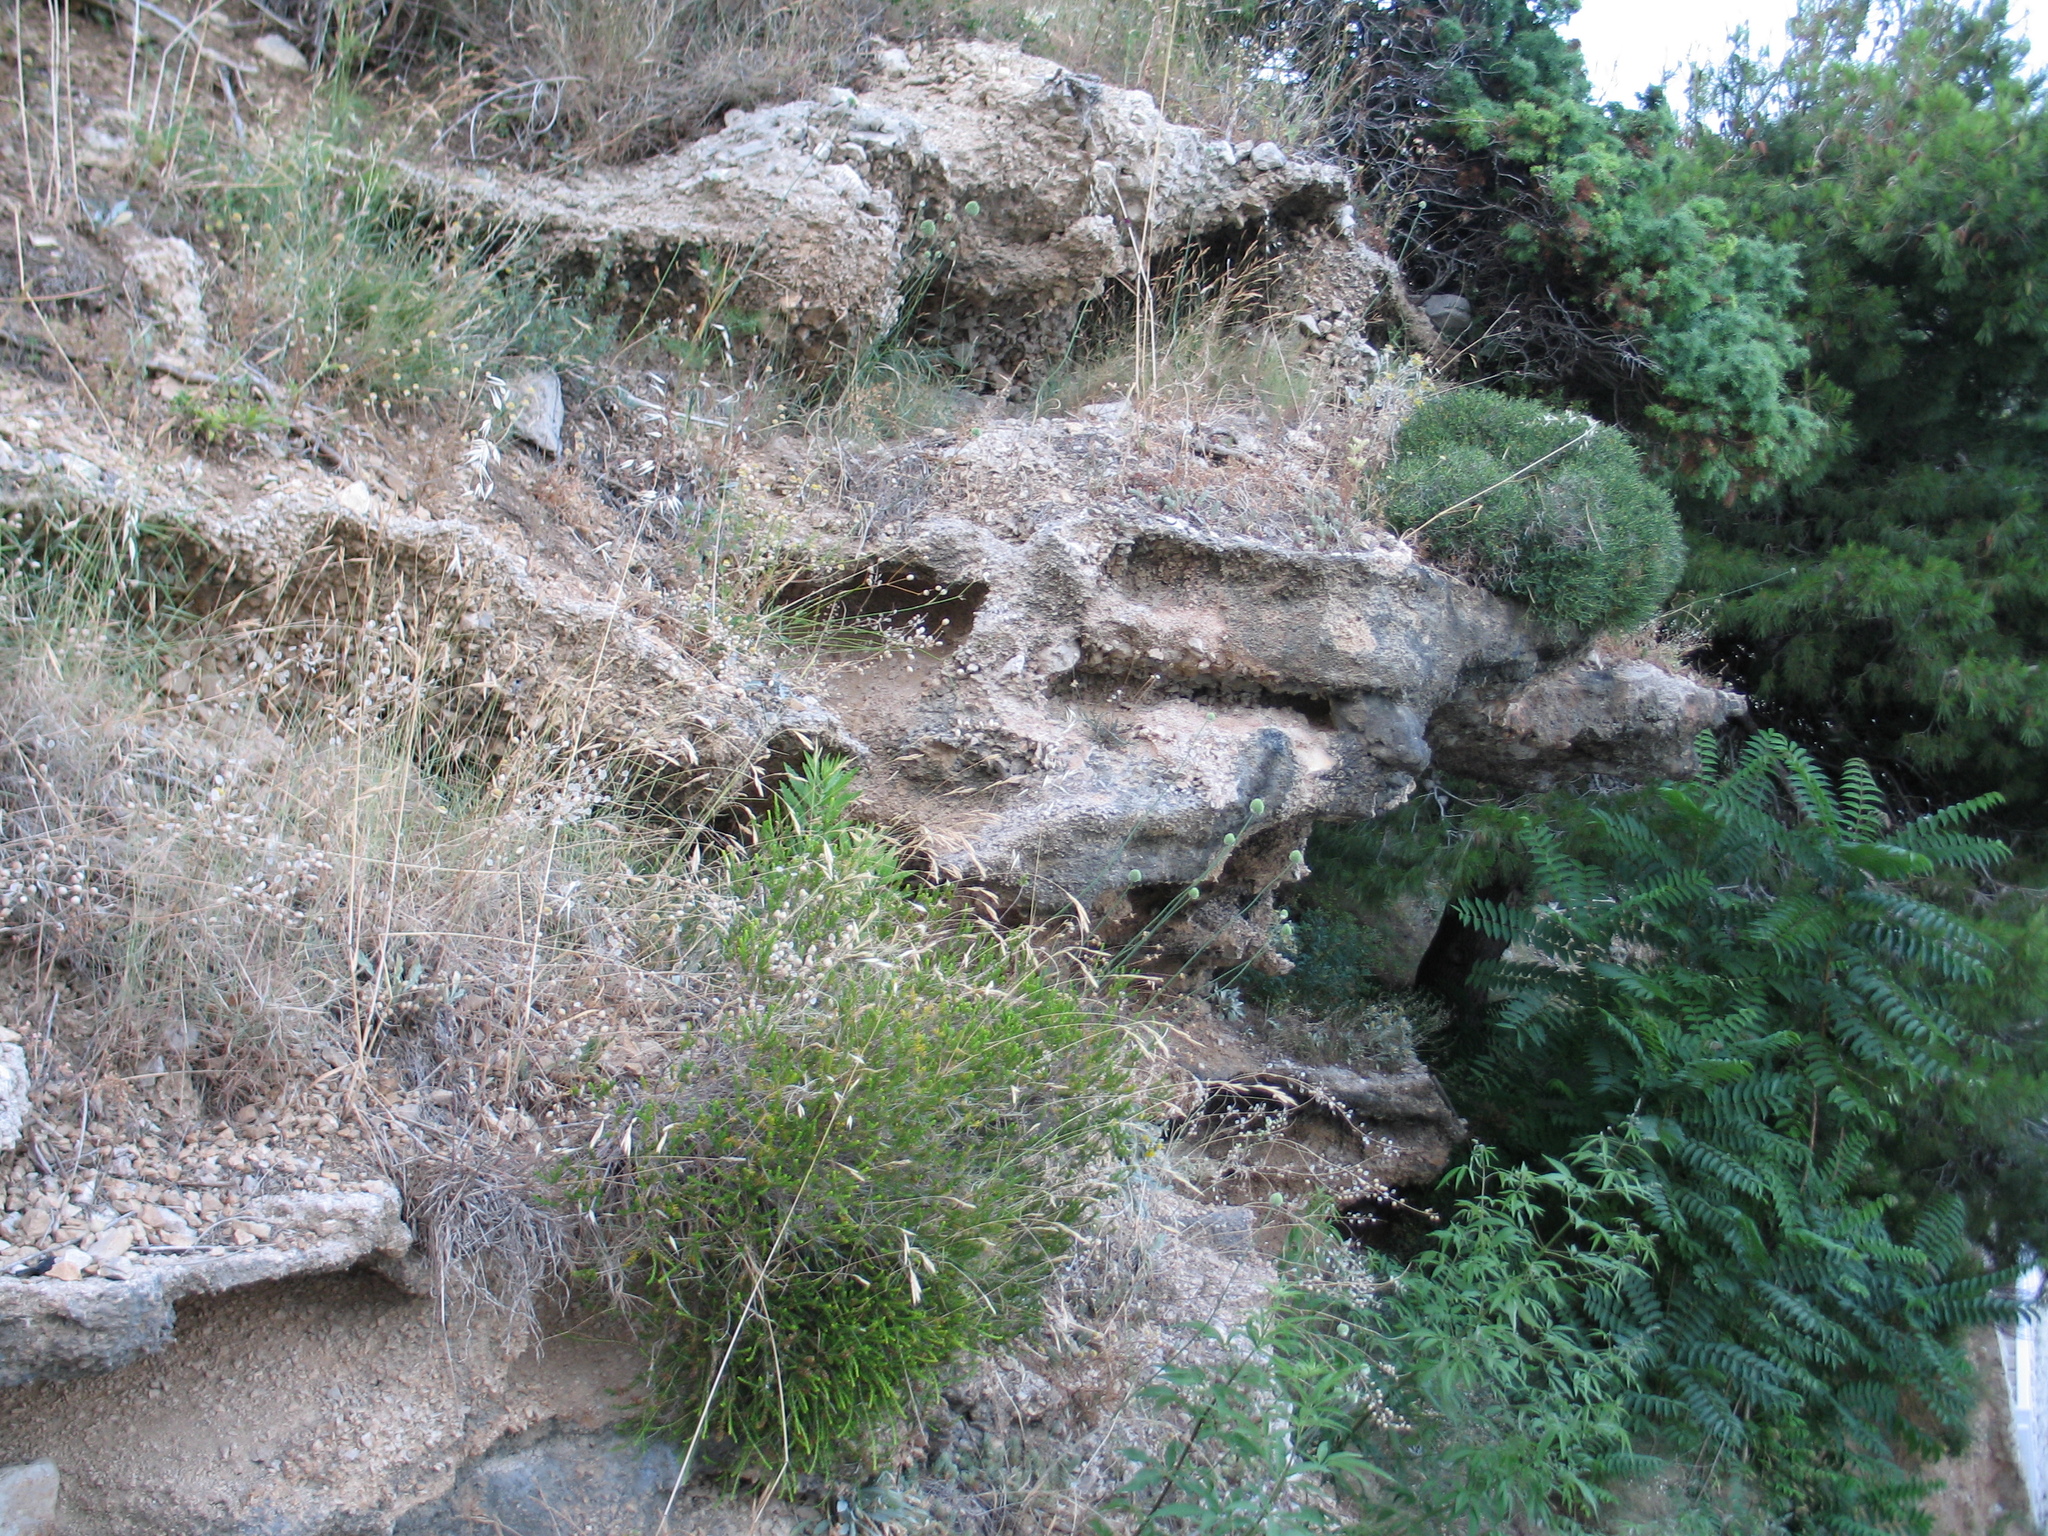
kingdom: Plantae
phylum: Tracheophyta
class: Magnoliopsida
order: Sapindales
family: Simaroubaceae
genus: Ailanthus
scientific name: Ailanthus altissima
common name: Tree-of-heaven
